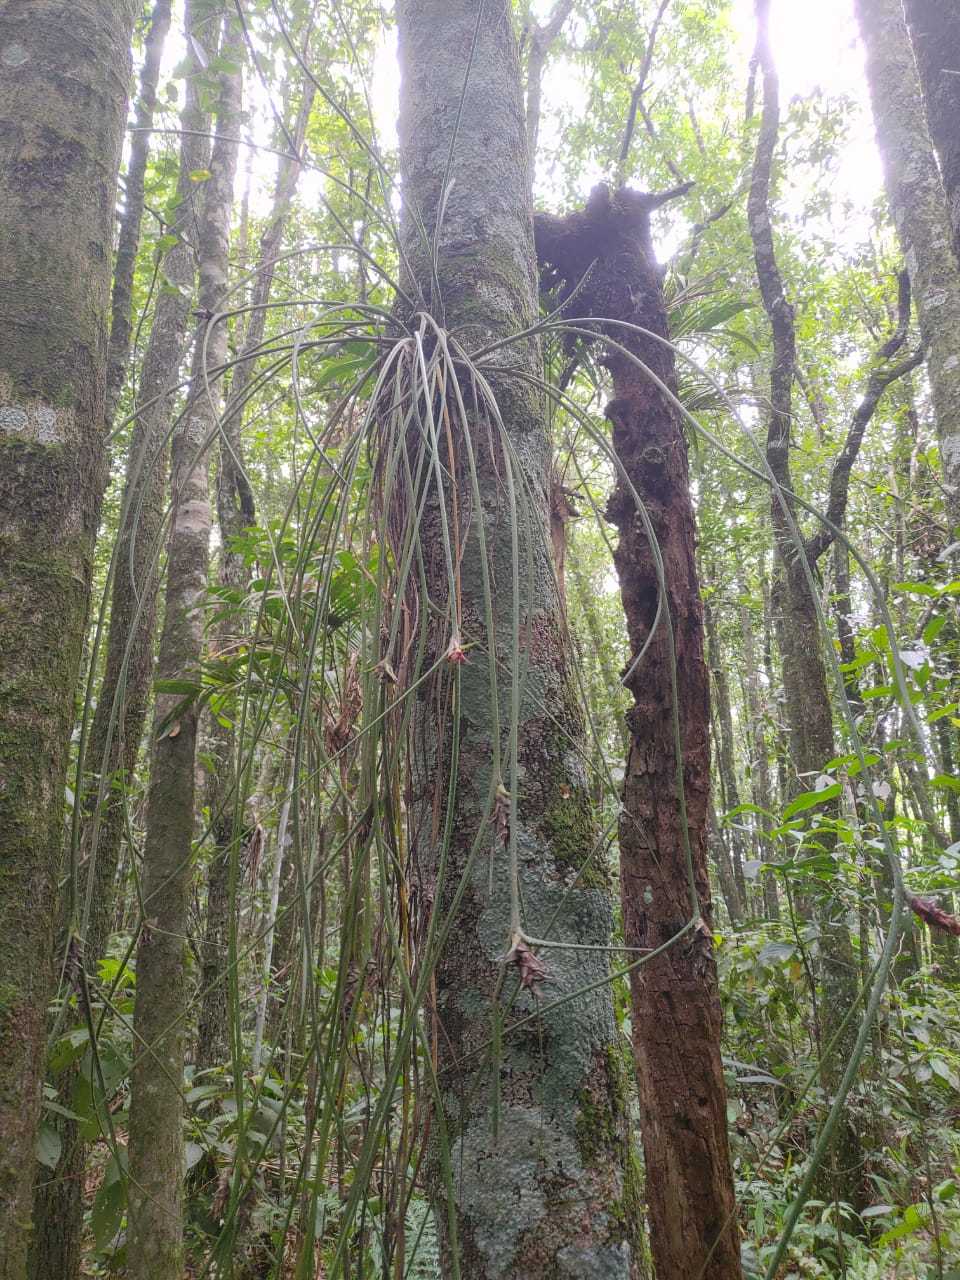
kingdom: Plantae
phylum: Tracheophyta
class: Liliopsida
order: Poales
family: Bromeliaceae
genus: Acanthostachys
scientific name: Acanthostachys strobilacea
